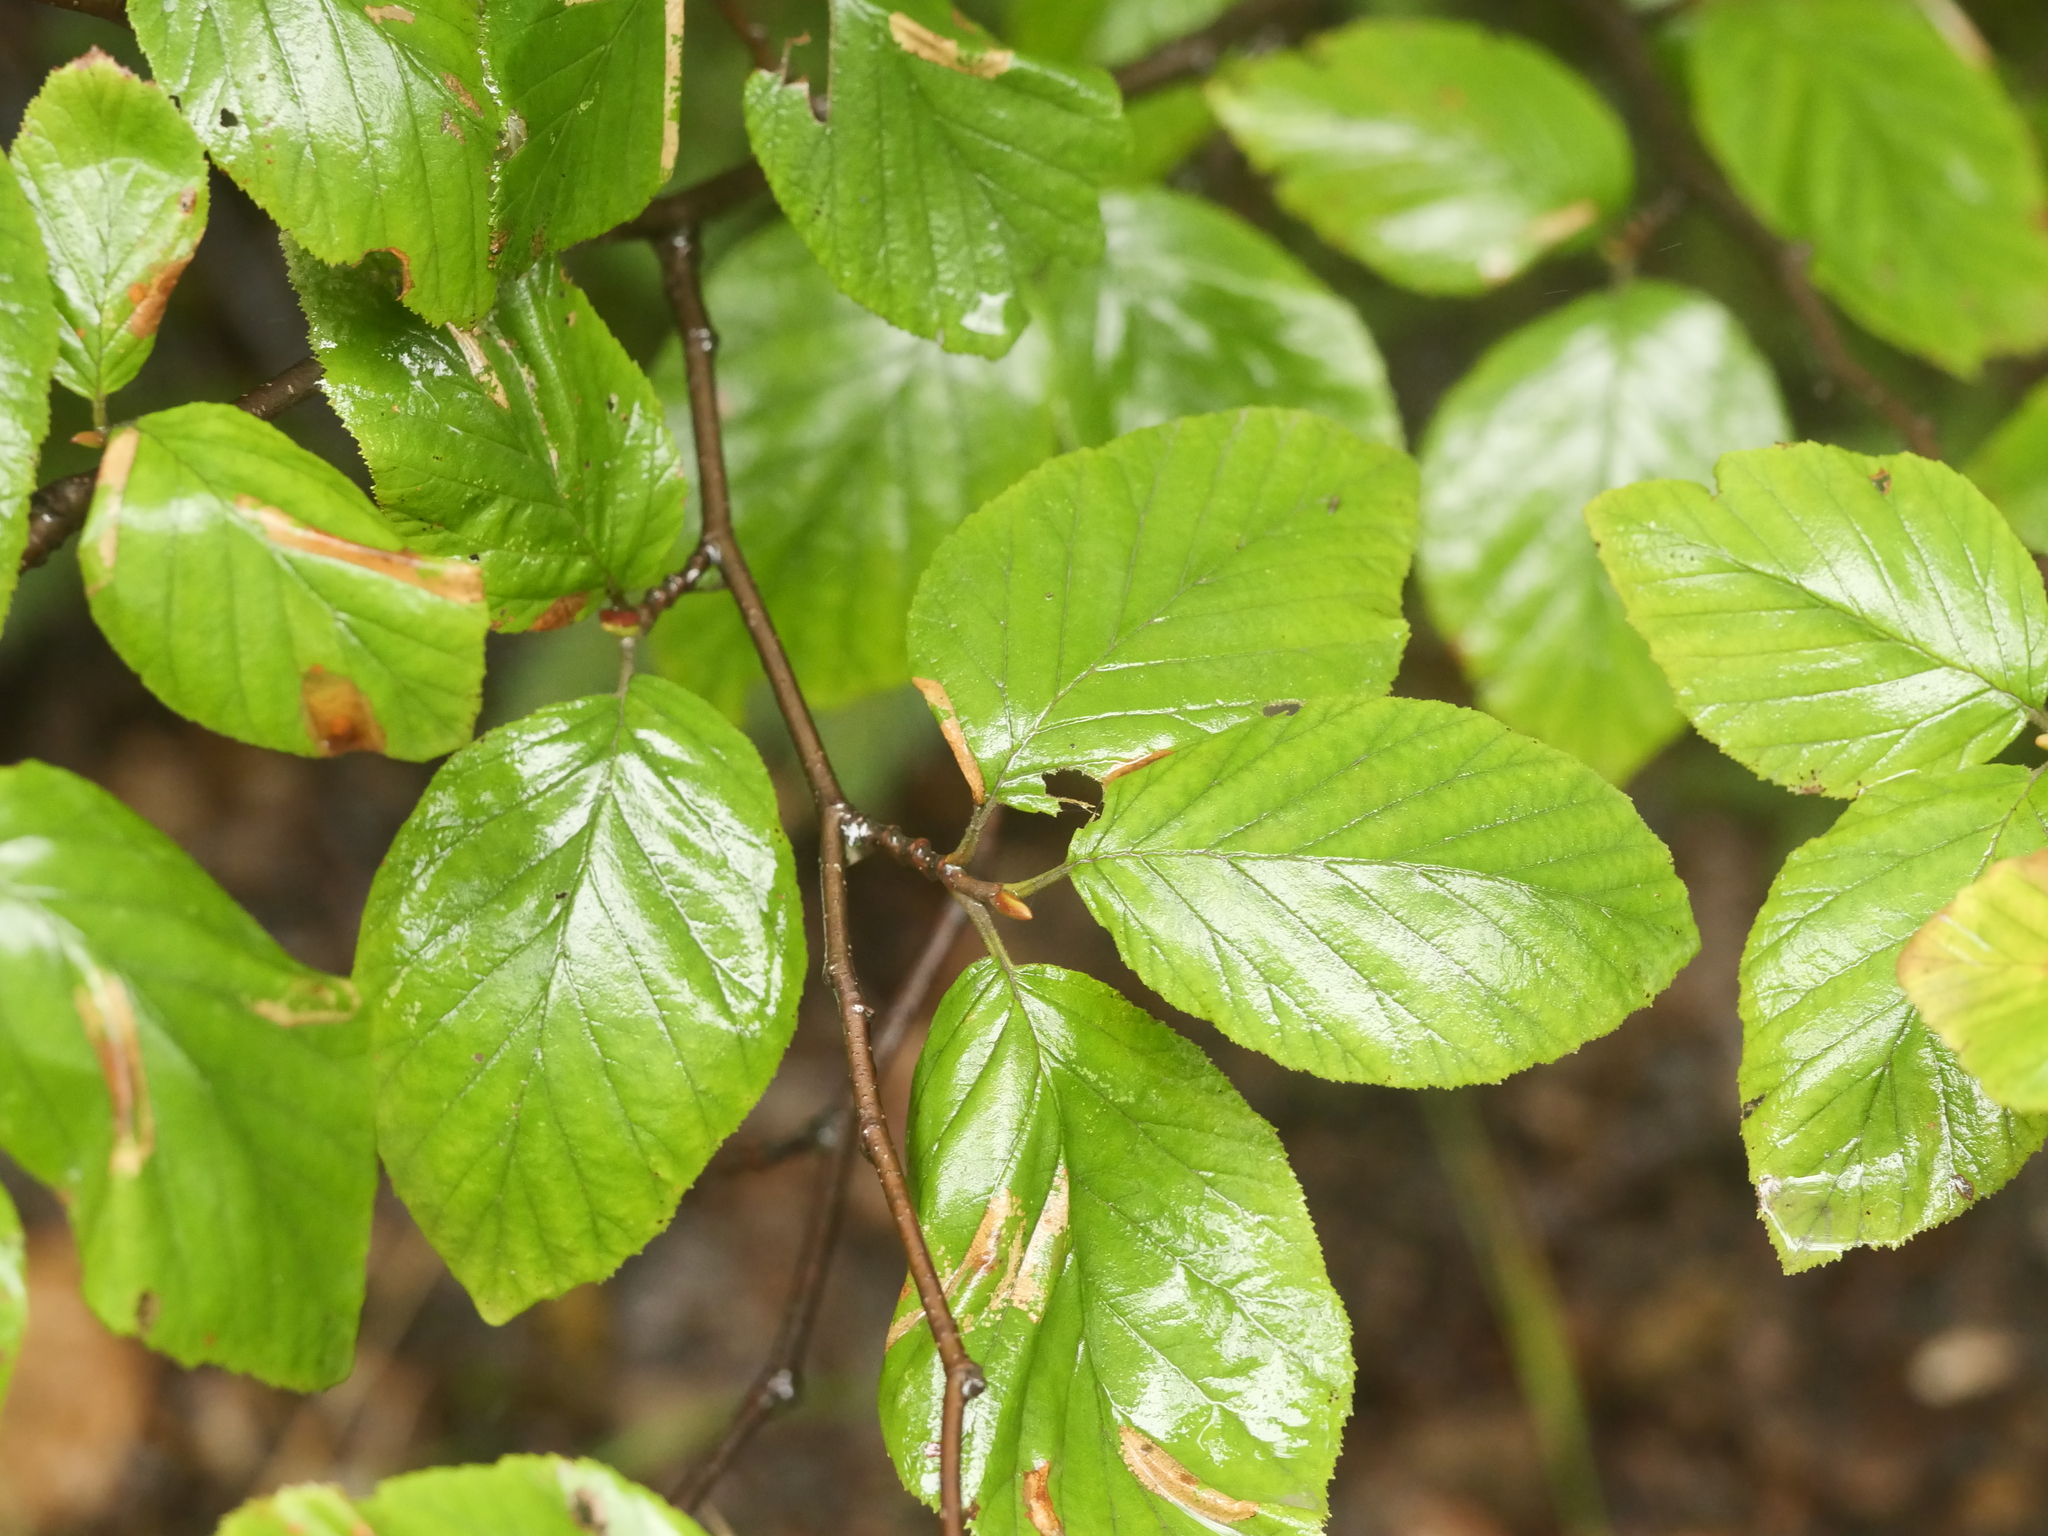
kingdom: Plantae
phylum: Tracheophyta
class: Magnoliopsida
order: Fagales
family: Betulaceae
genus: Alnus
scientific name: Alnus alnobetula
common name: Green alder
